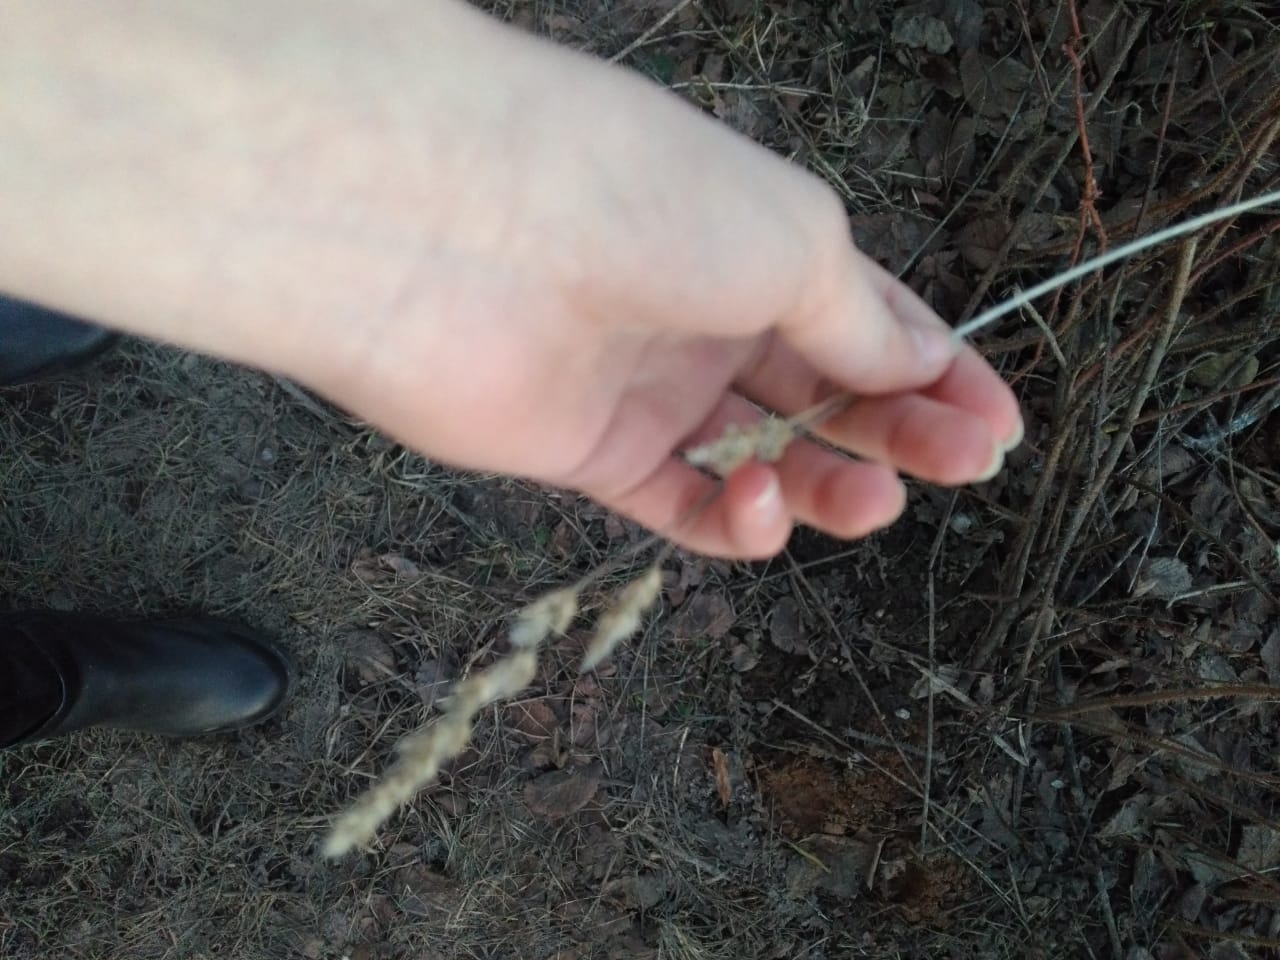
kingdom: Plantae
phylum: Tracheophyta
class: Liliopsida
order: Poales
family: Poaceae
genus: Dactylis
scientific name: Dactylis glomerata
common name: Orchardgrass
